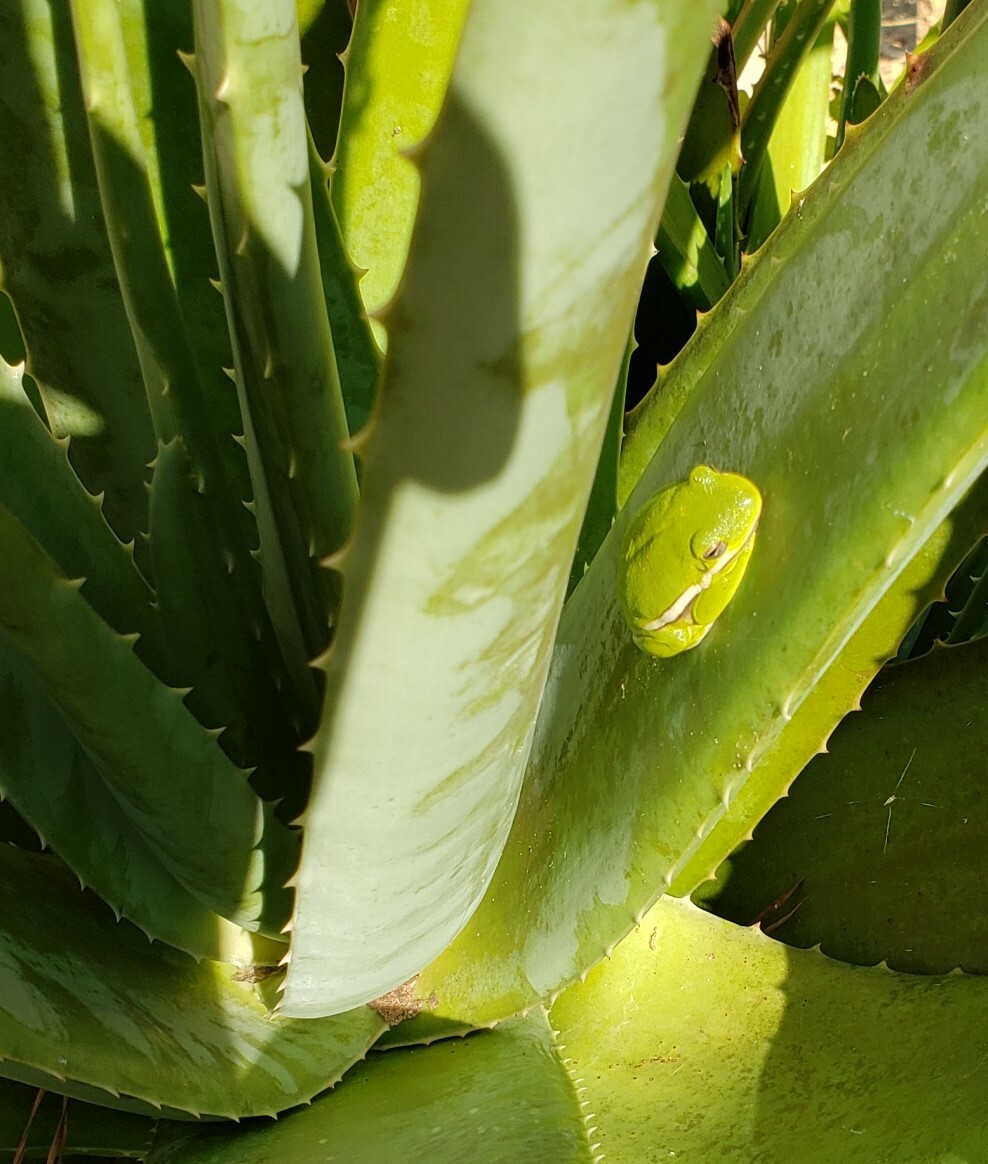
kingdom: Animalia
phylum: Chordata
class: Amphibia
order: Anura
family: Hylidae
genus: Dryophytes
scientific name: Dryophytes cinereus
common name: Green treefrog
